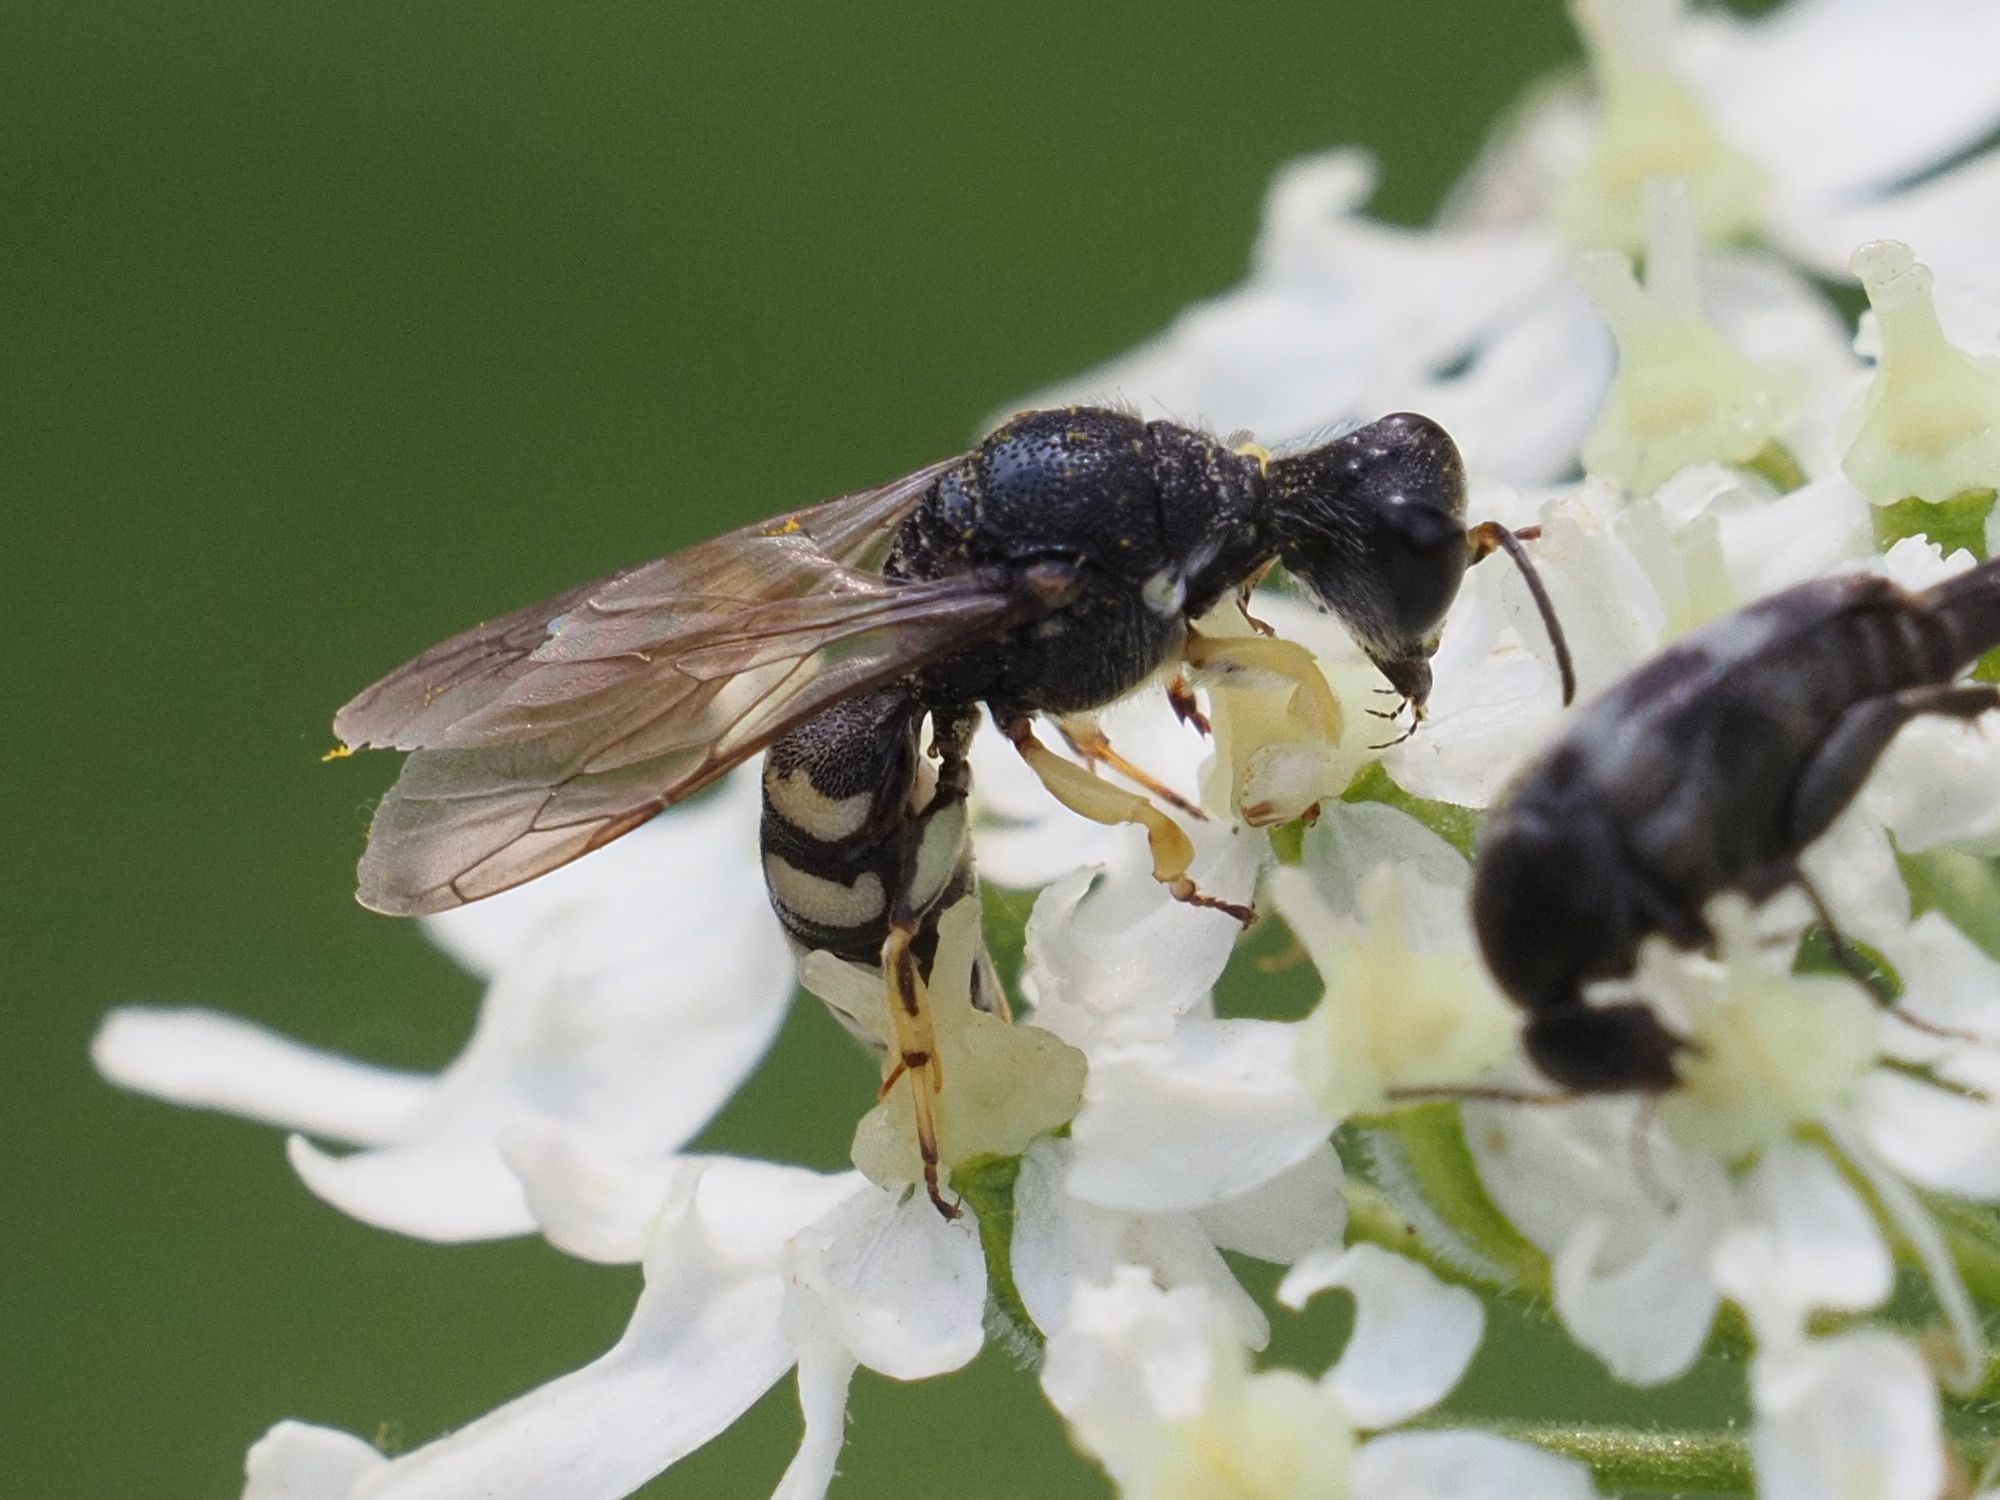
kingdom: Animalia
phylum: Arthropoda
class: Insecta
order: Hymenoptera
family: Crabronidae
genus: Lestica
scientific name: Lestica clypeata
